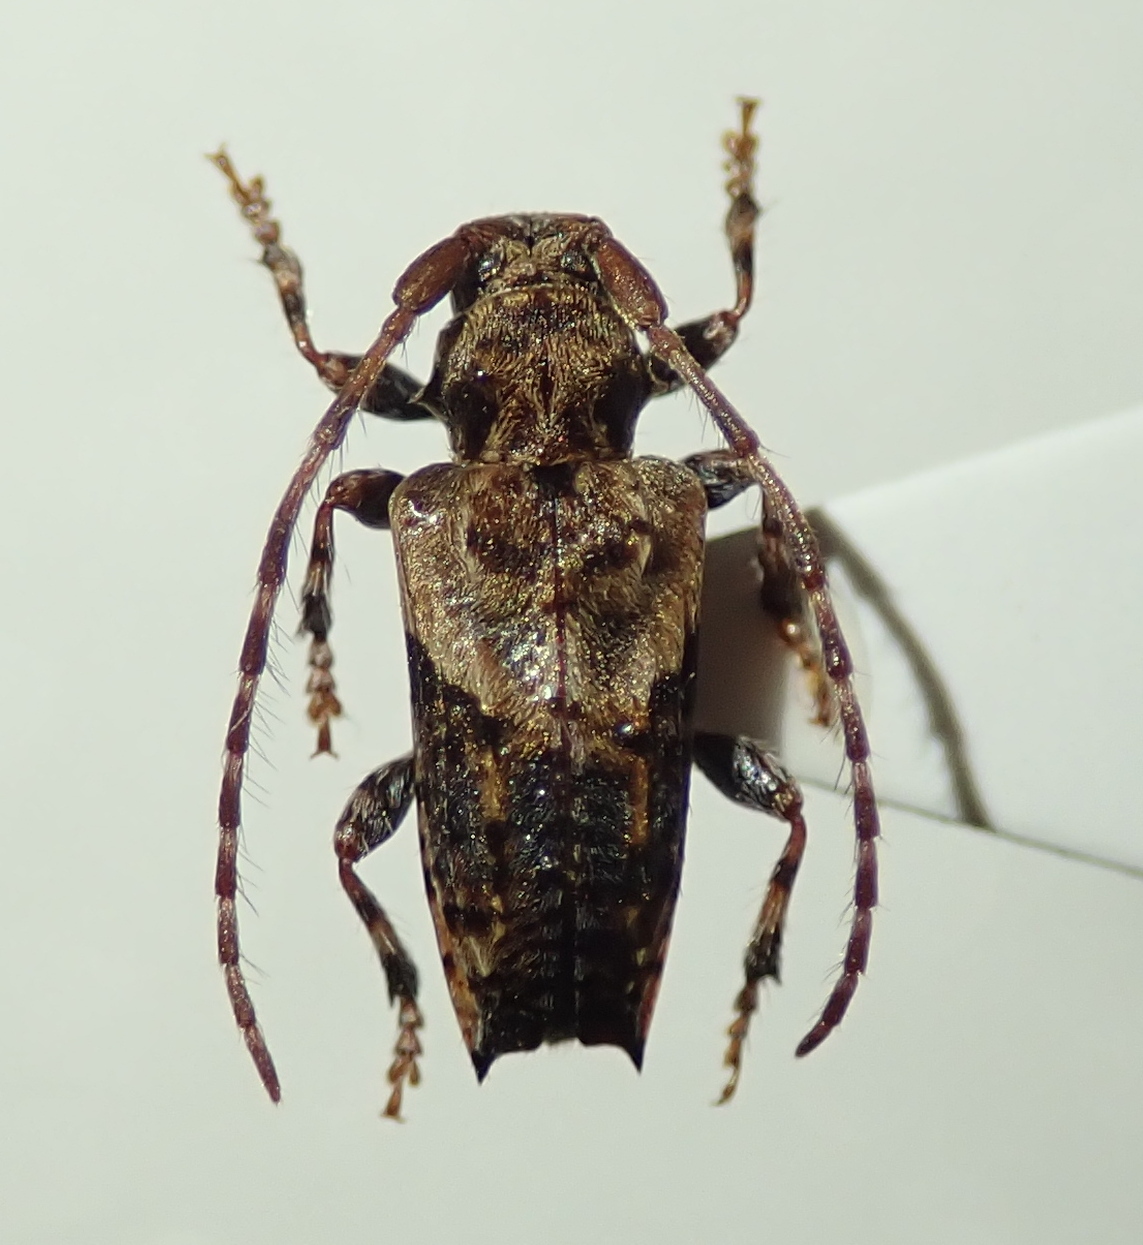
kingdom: Animalia
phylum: Arthropoda
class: Insecta
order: Coleoptera
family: Cerambycidae
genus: Pogonocherus
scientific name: Pogonocherus hispidus
